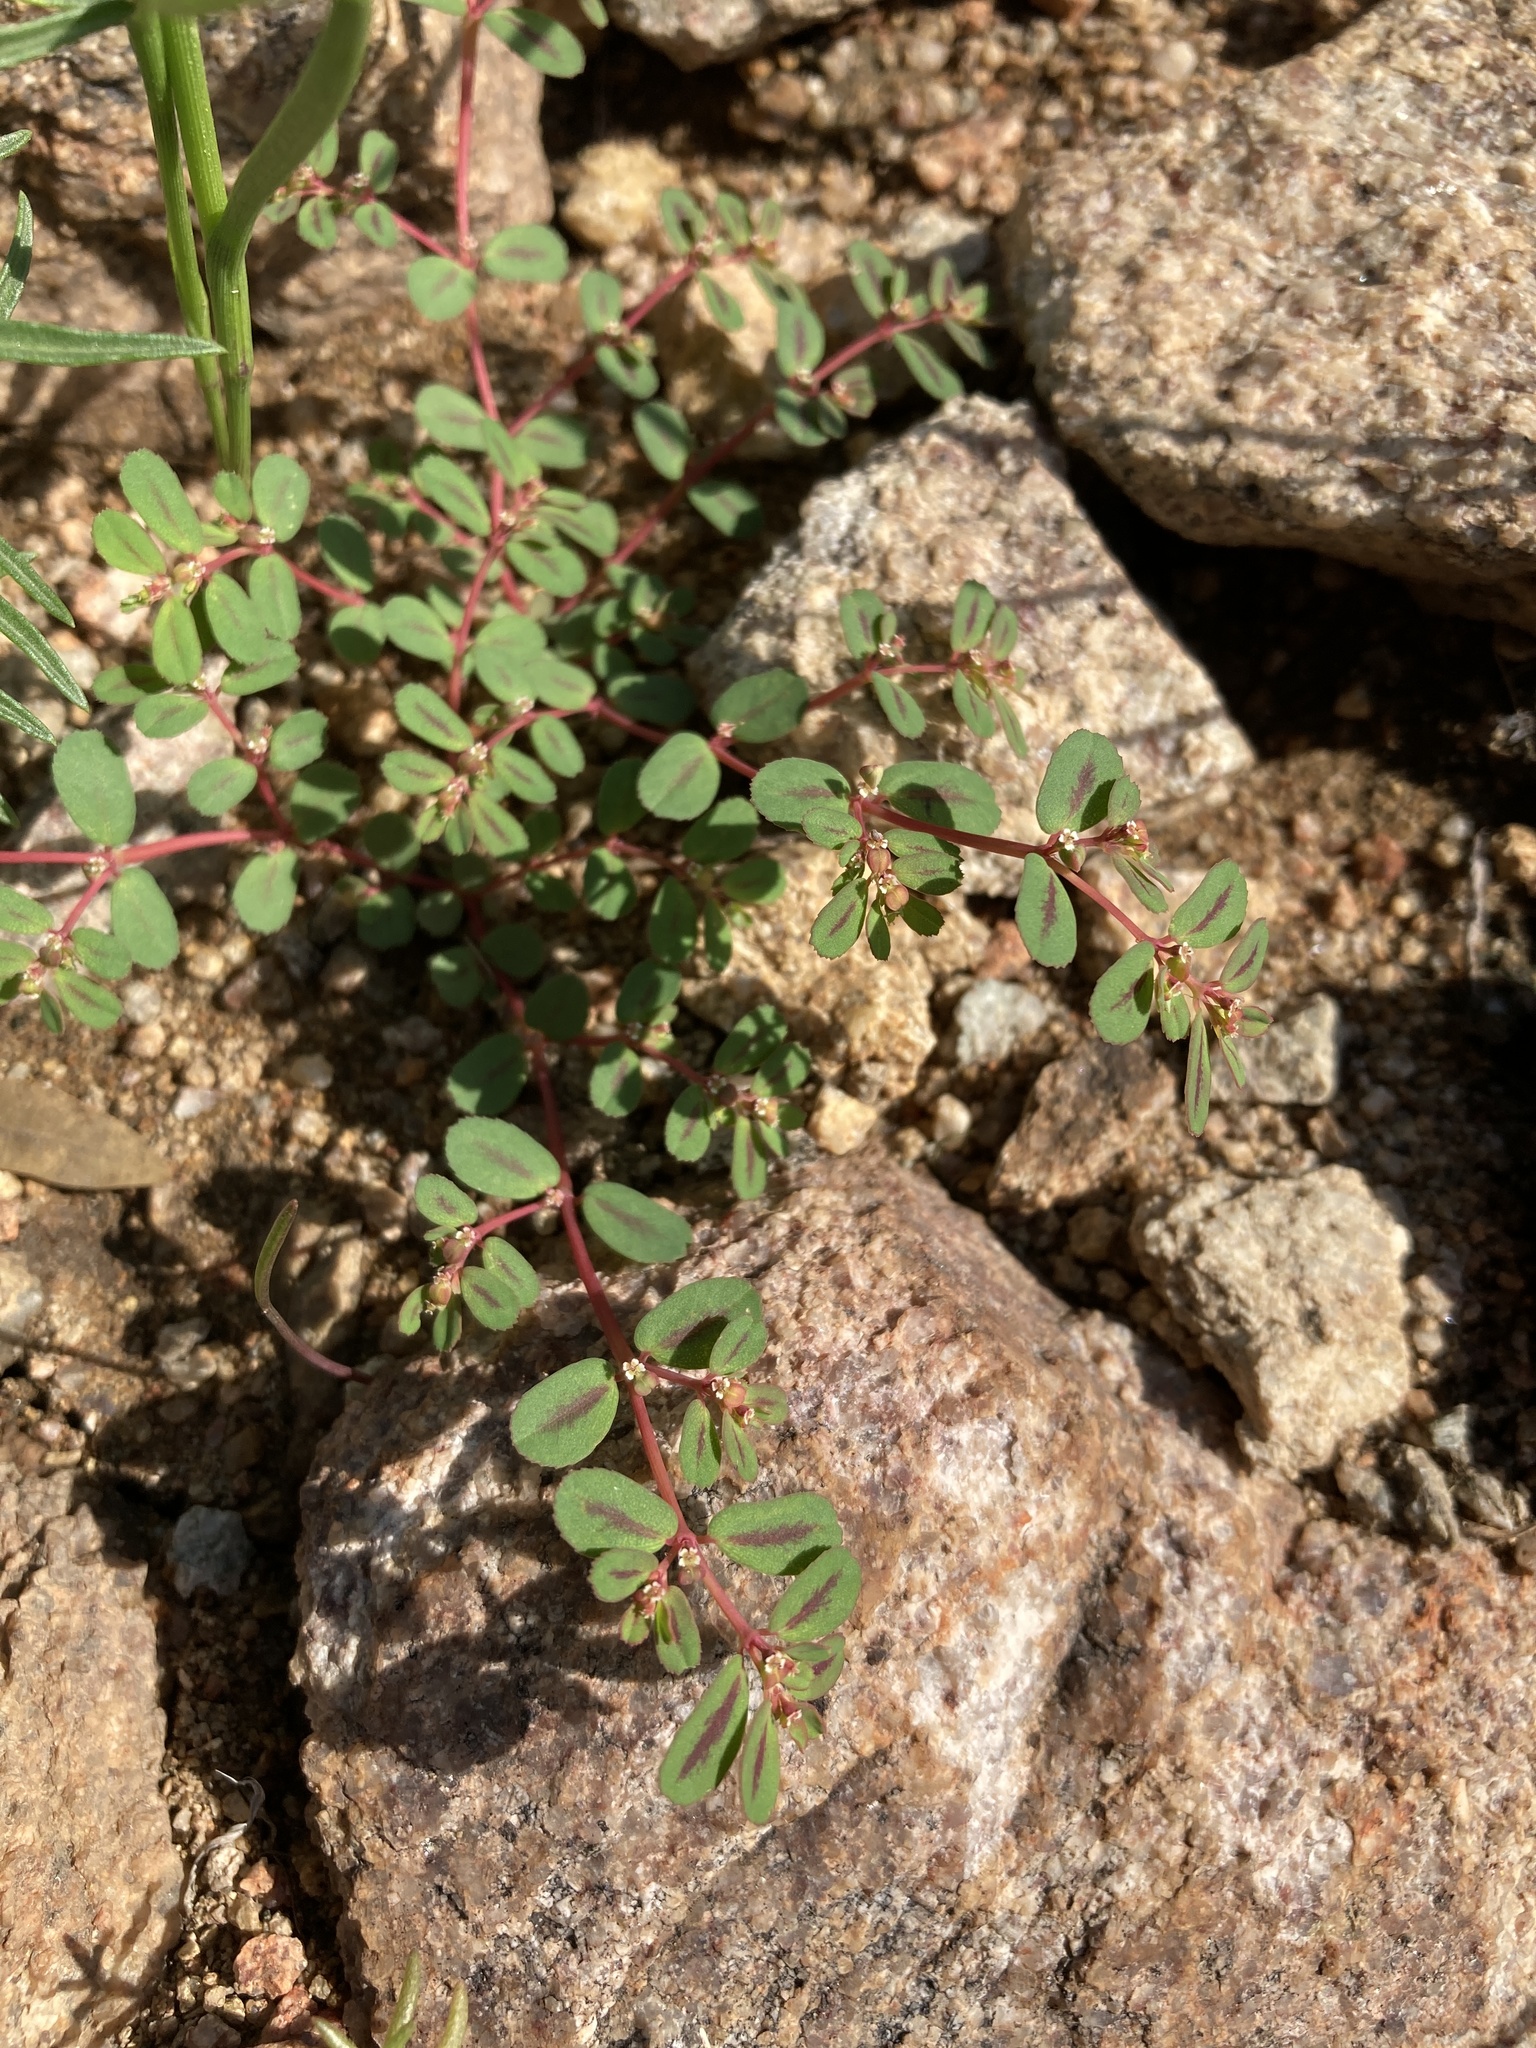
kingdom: Plantae
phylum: Tracheophyta
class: Magnoliopsida
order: Malpighiales
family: Euphorbiaceae
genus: Euphorbia
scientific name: Euphorbia serpillifolia
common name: Thyme-leaf spurge
